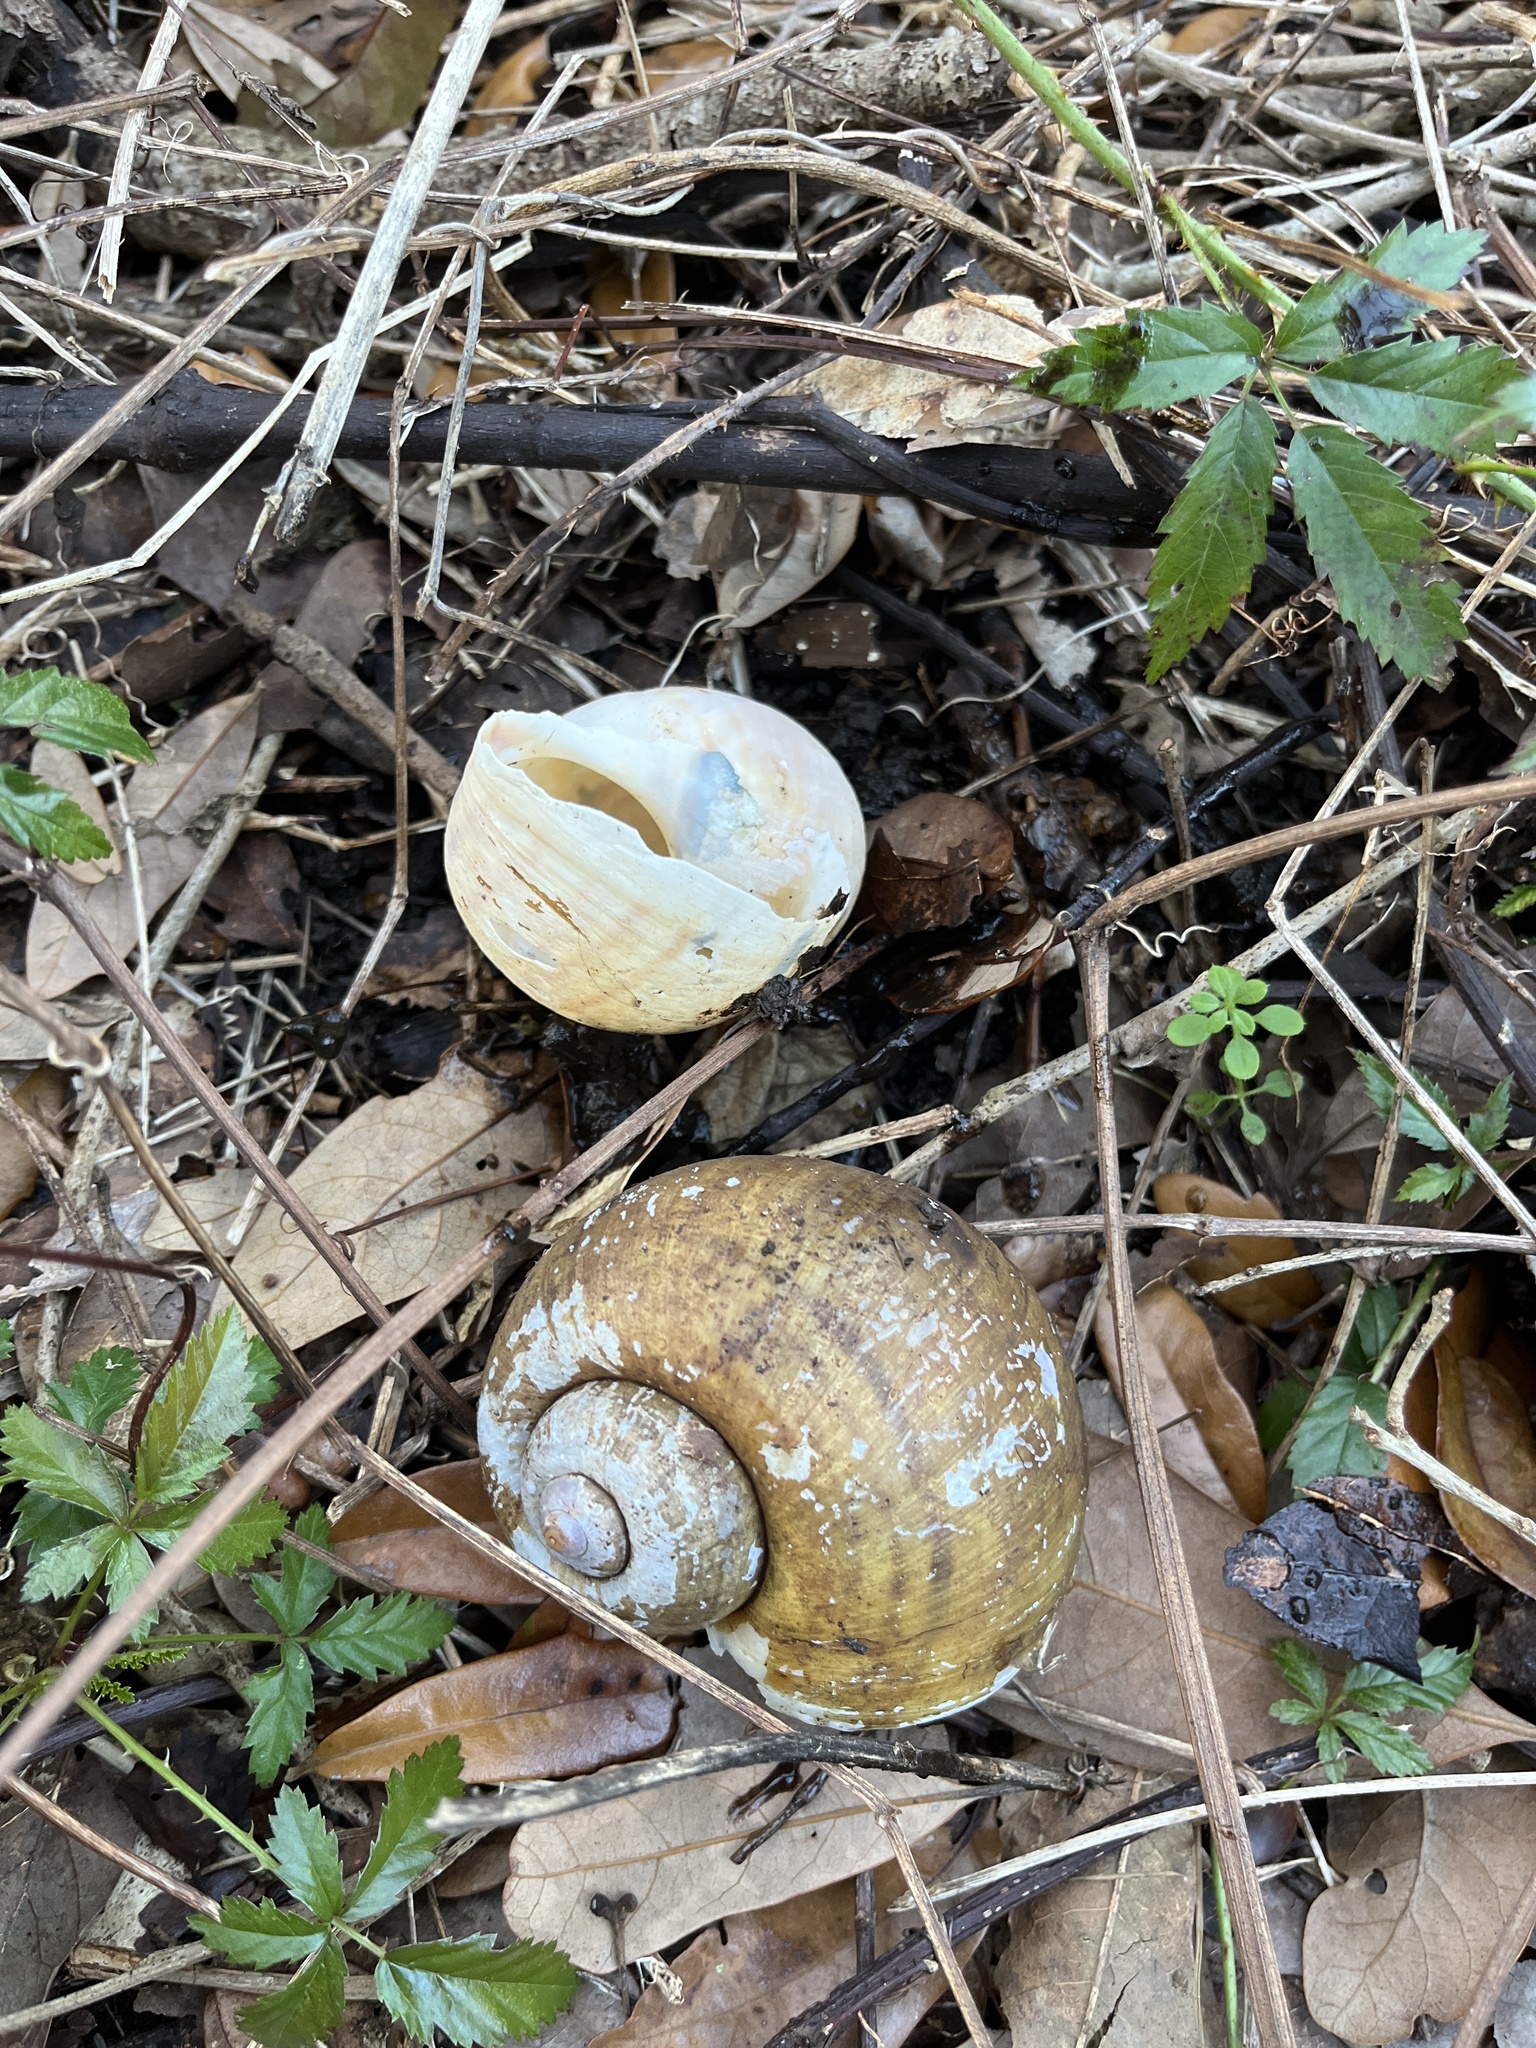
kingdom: Animalia
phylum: Mollusca
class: Gastropoda
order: Architaenioglossa
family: Ampullariidae
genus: Pomacea
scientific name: Pomacea maculata
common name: Giant applesnail
